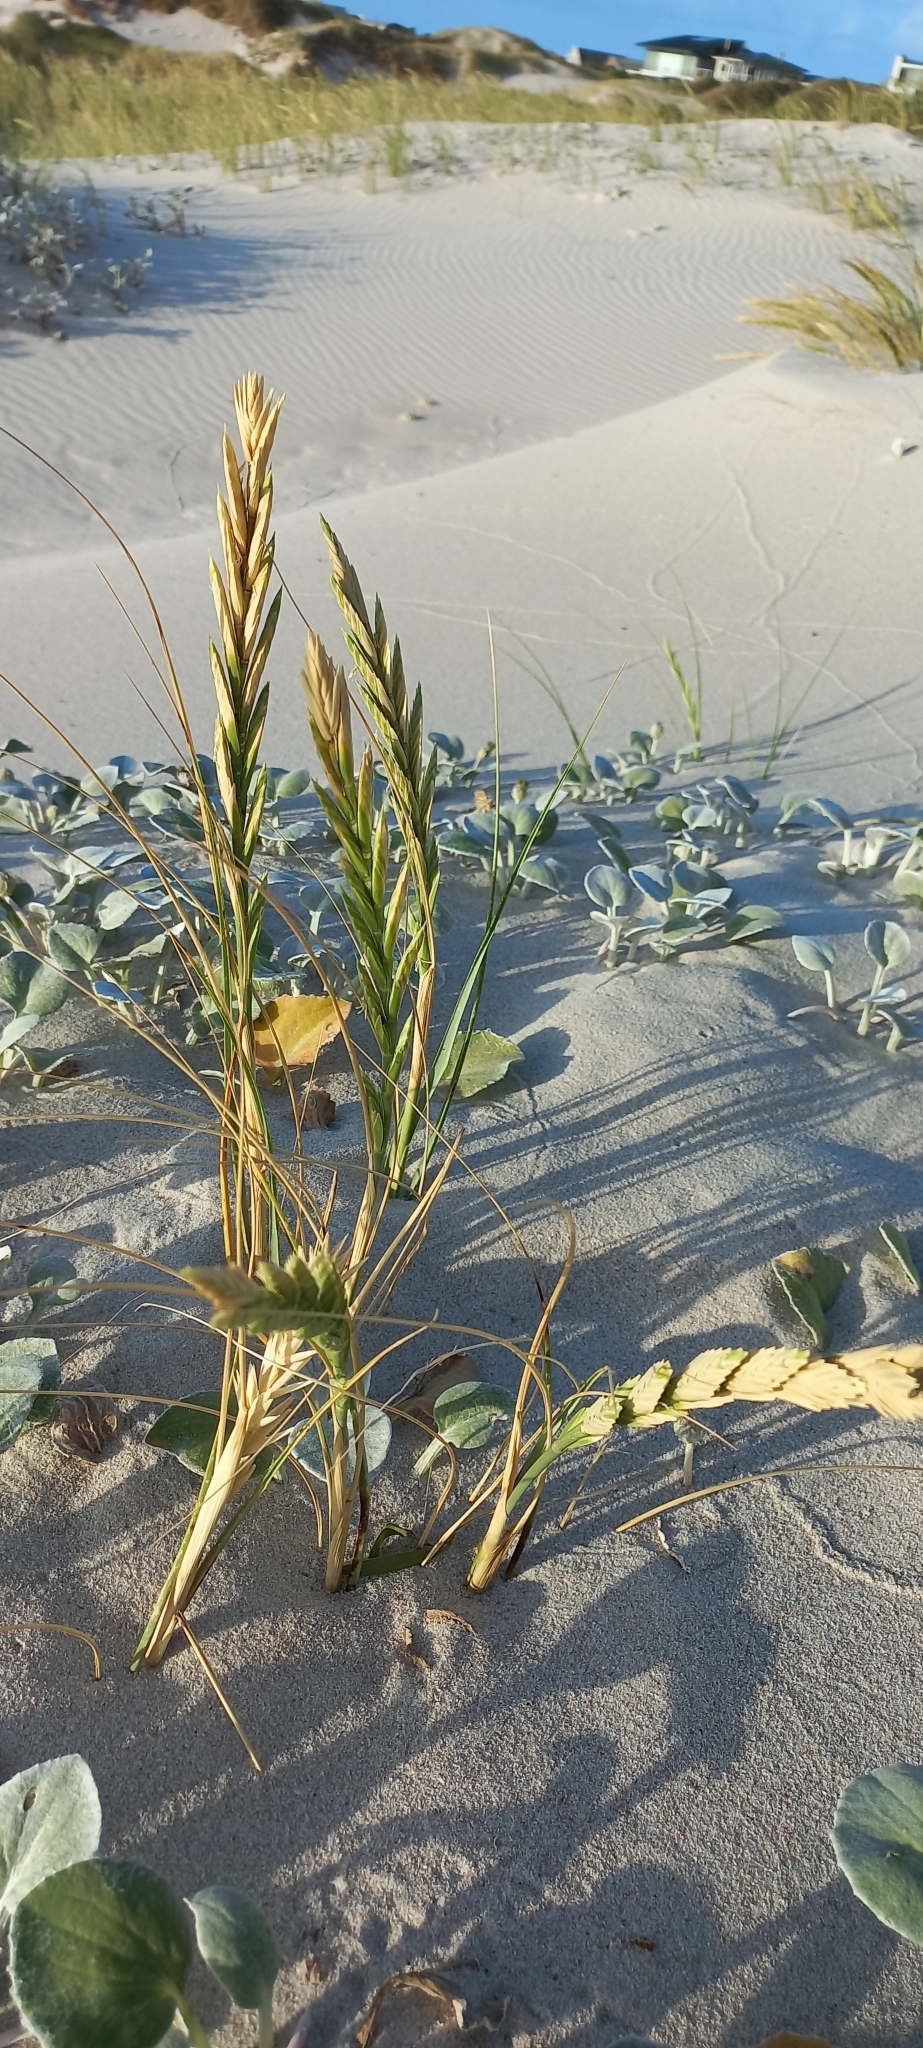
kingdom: Plantae
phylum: Tracheophyta
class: Liliopsida
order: Poales
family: Poaceae
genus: Thinopyrum
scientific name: Thinopyrum distichum
